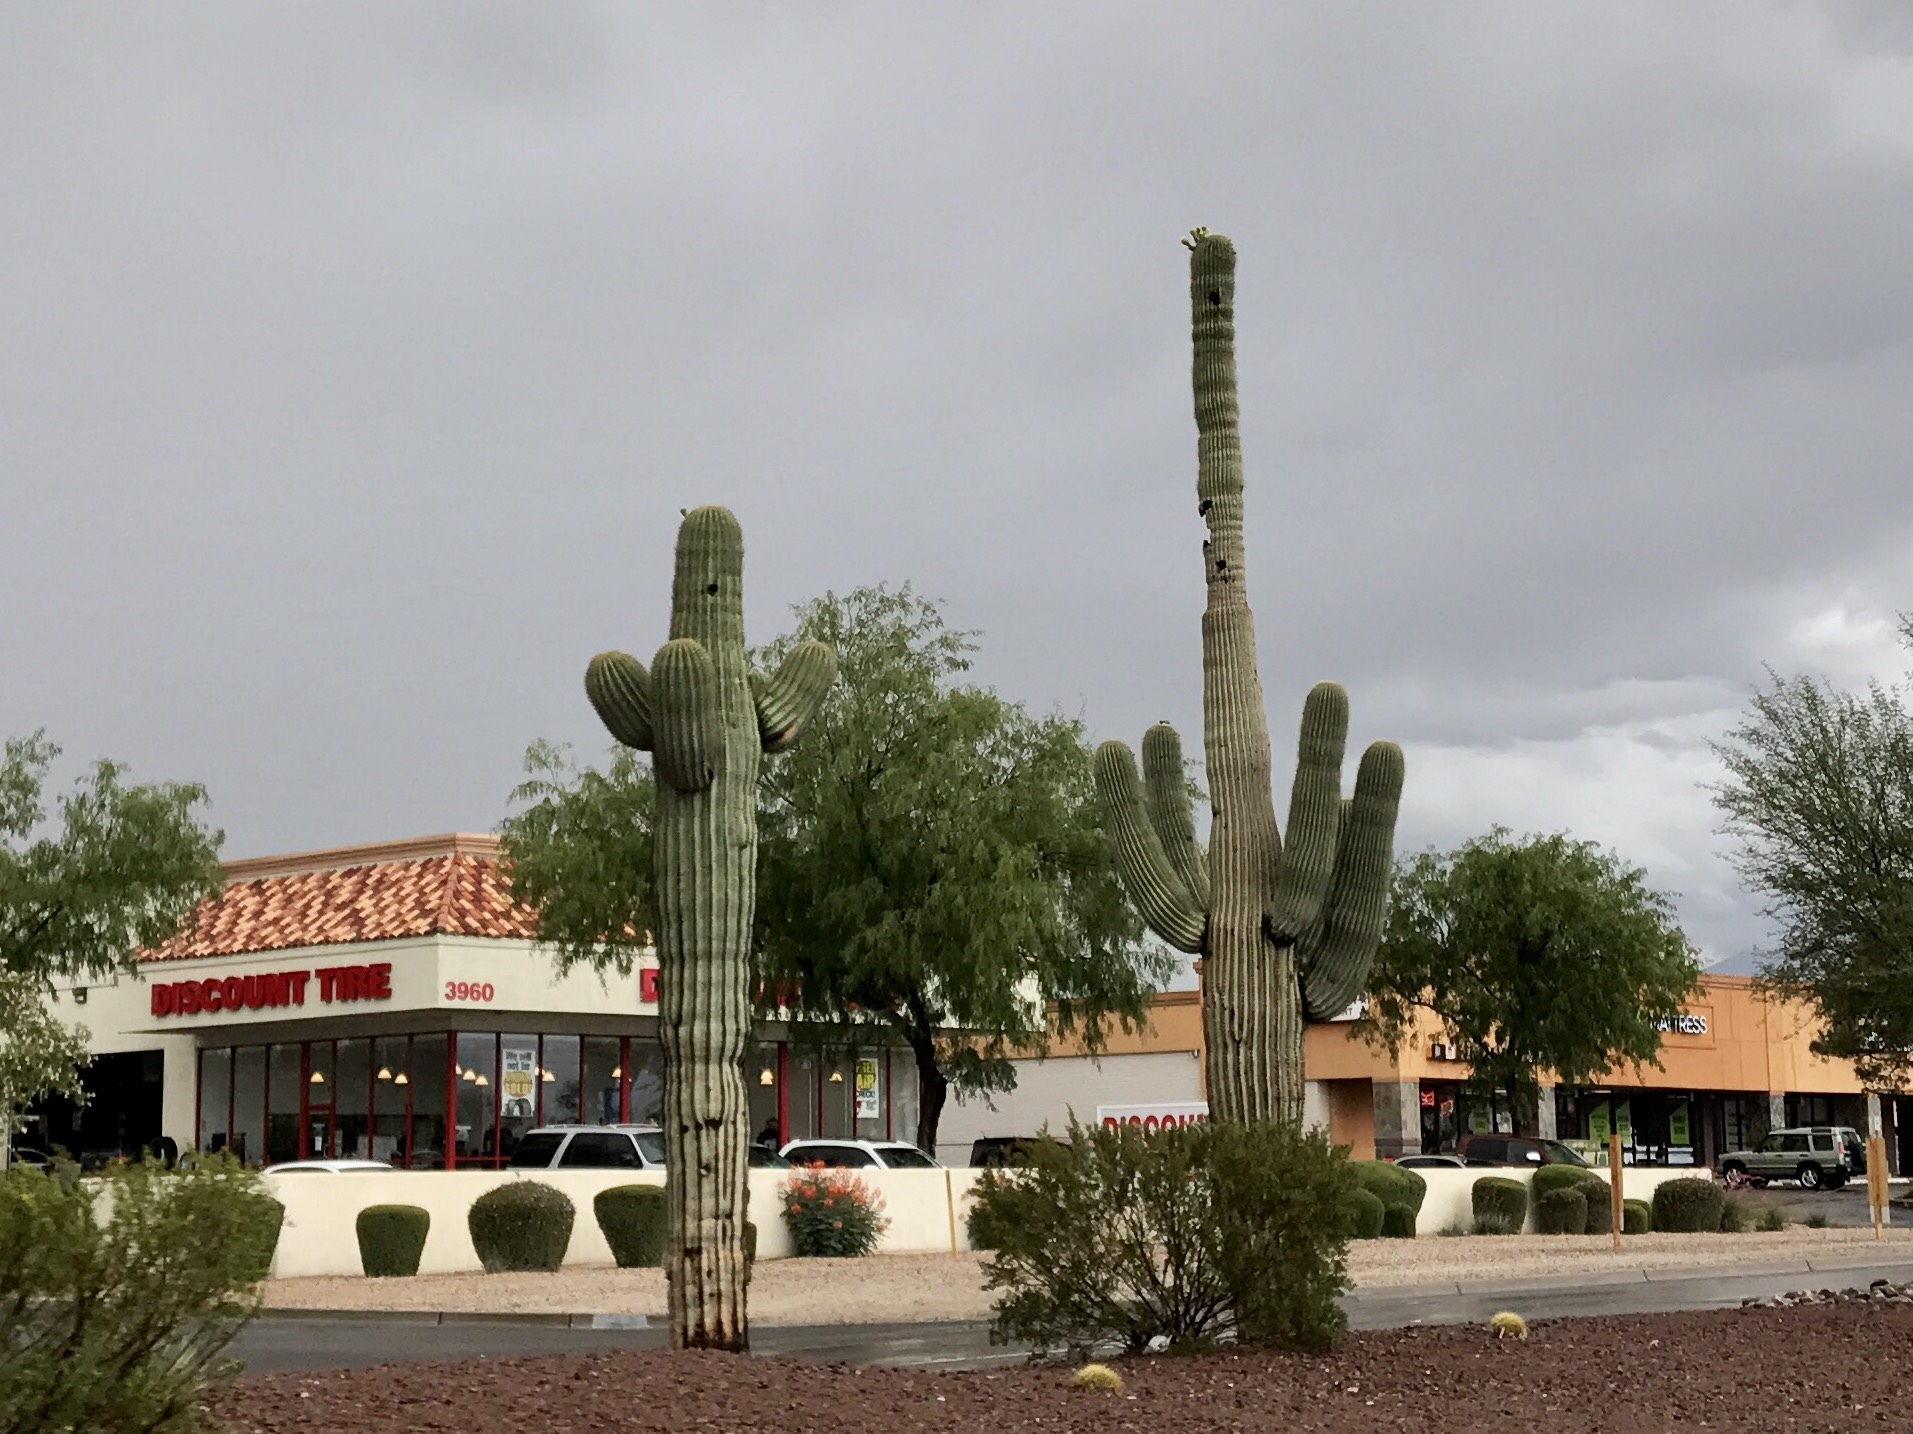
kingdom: Plantae
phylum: Tracheophyta
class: Magnoliopsida
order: Caryophyllales
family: Cactaceae
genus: Carnegiea
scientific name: Carnegiea gigantea
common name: Saguaro
